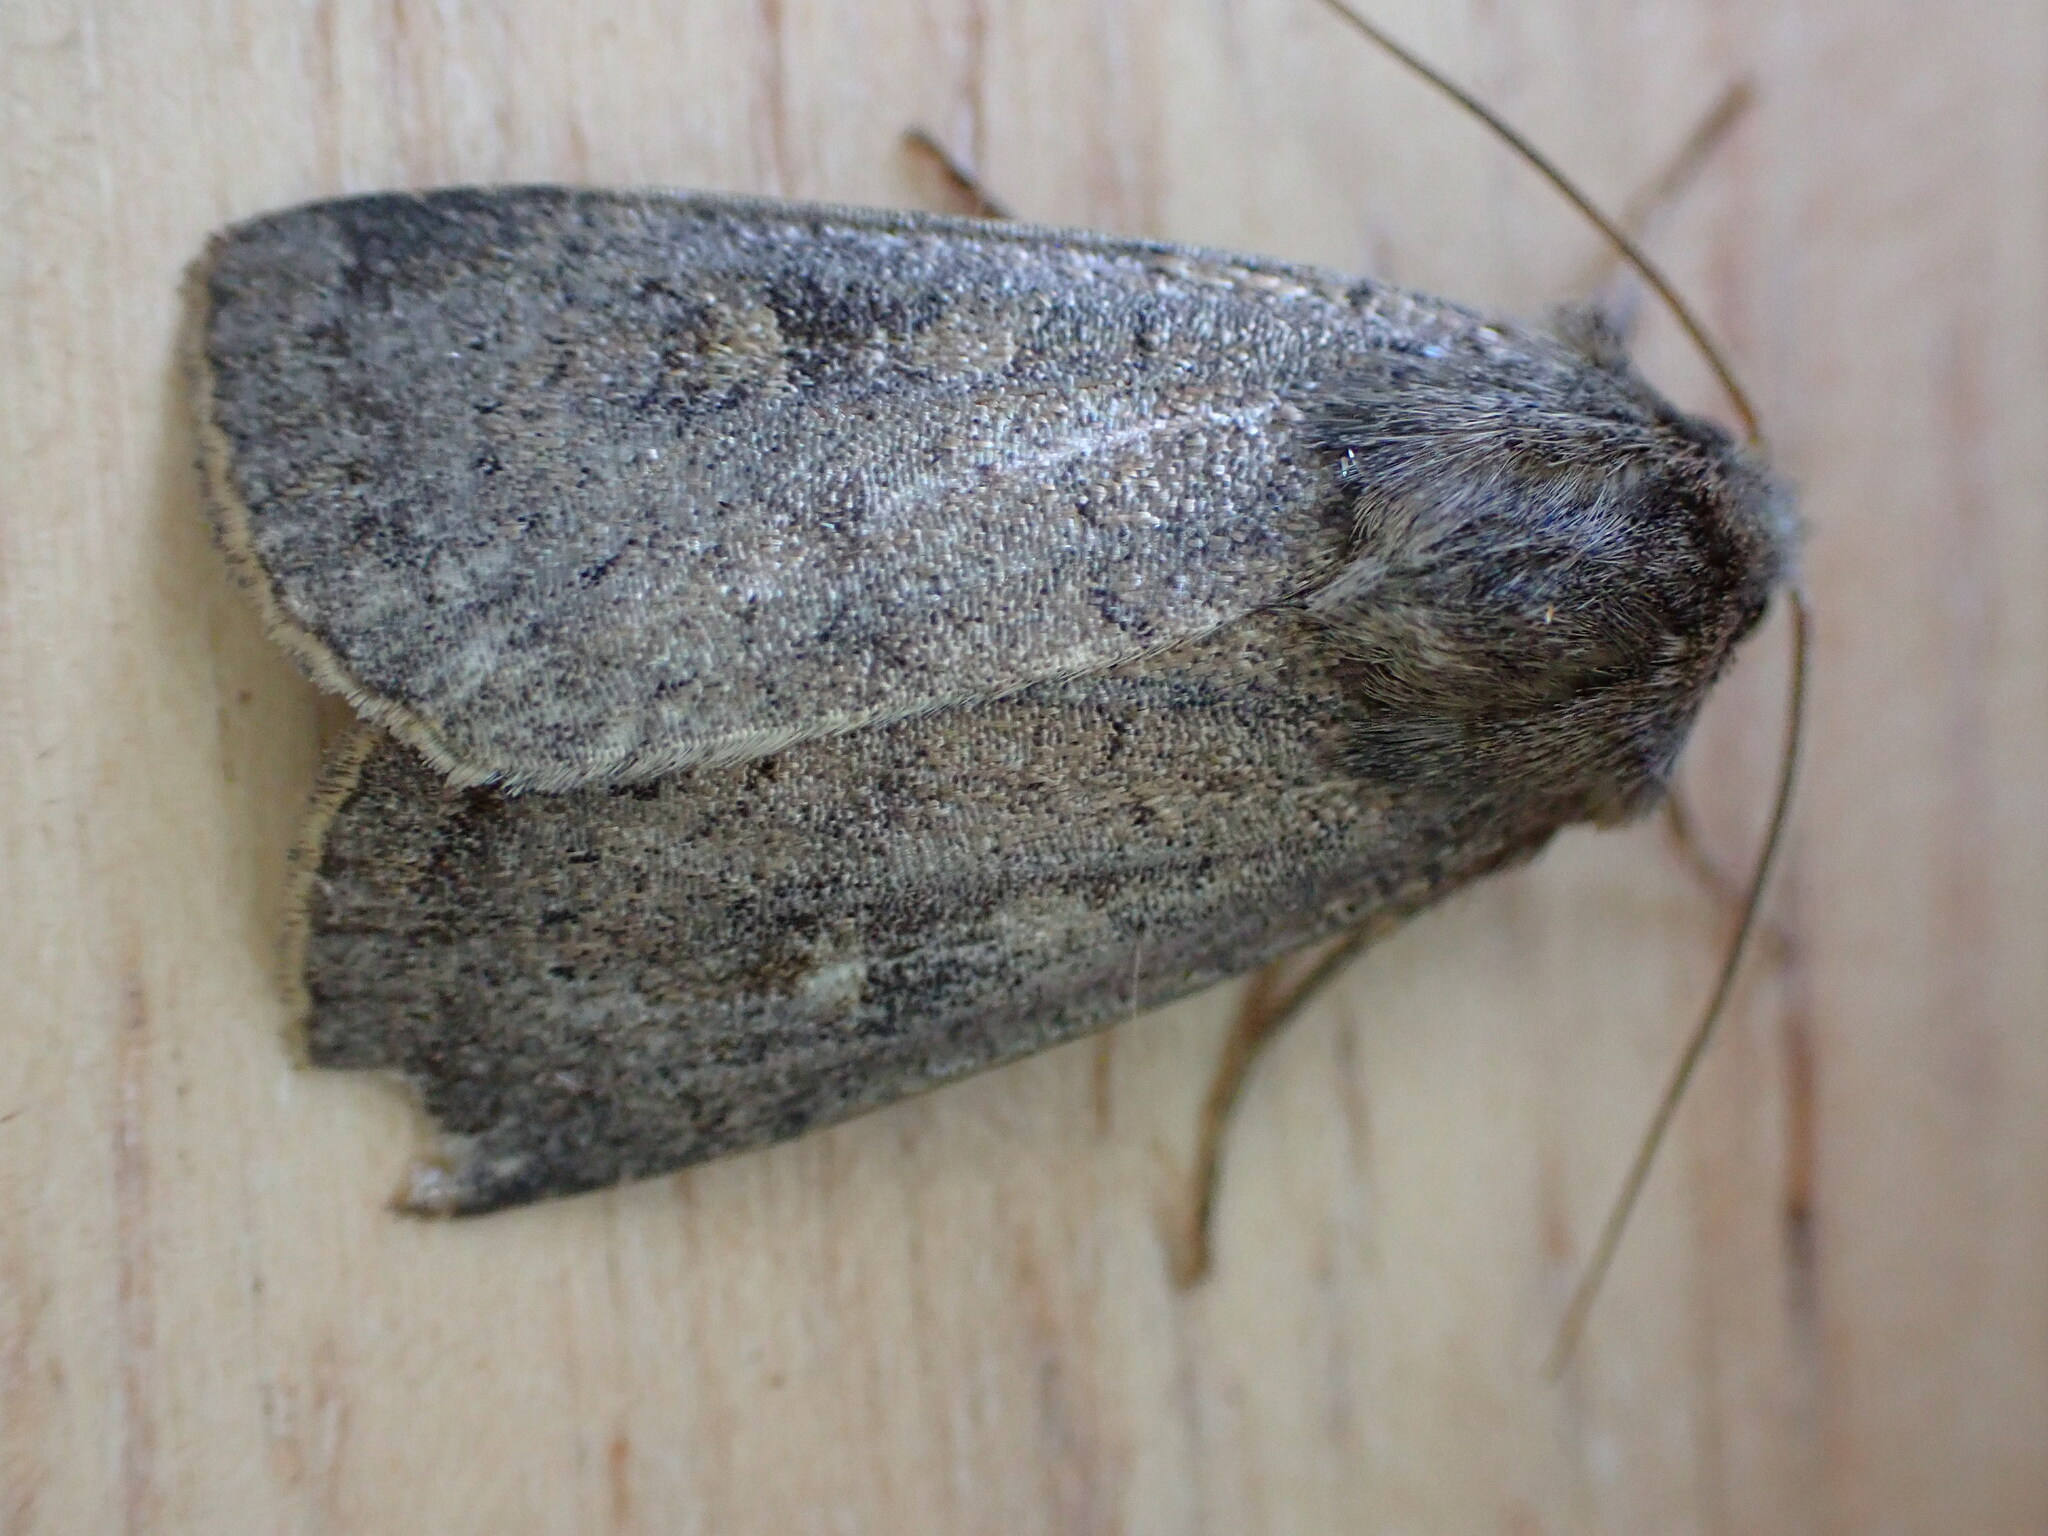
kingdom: Animalia
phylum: Arthropoda
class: Insecta
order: Lepidoptera
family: Noctuidae
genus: Xestia
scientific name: Xestia xanthographa
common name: Square-spot rustic
